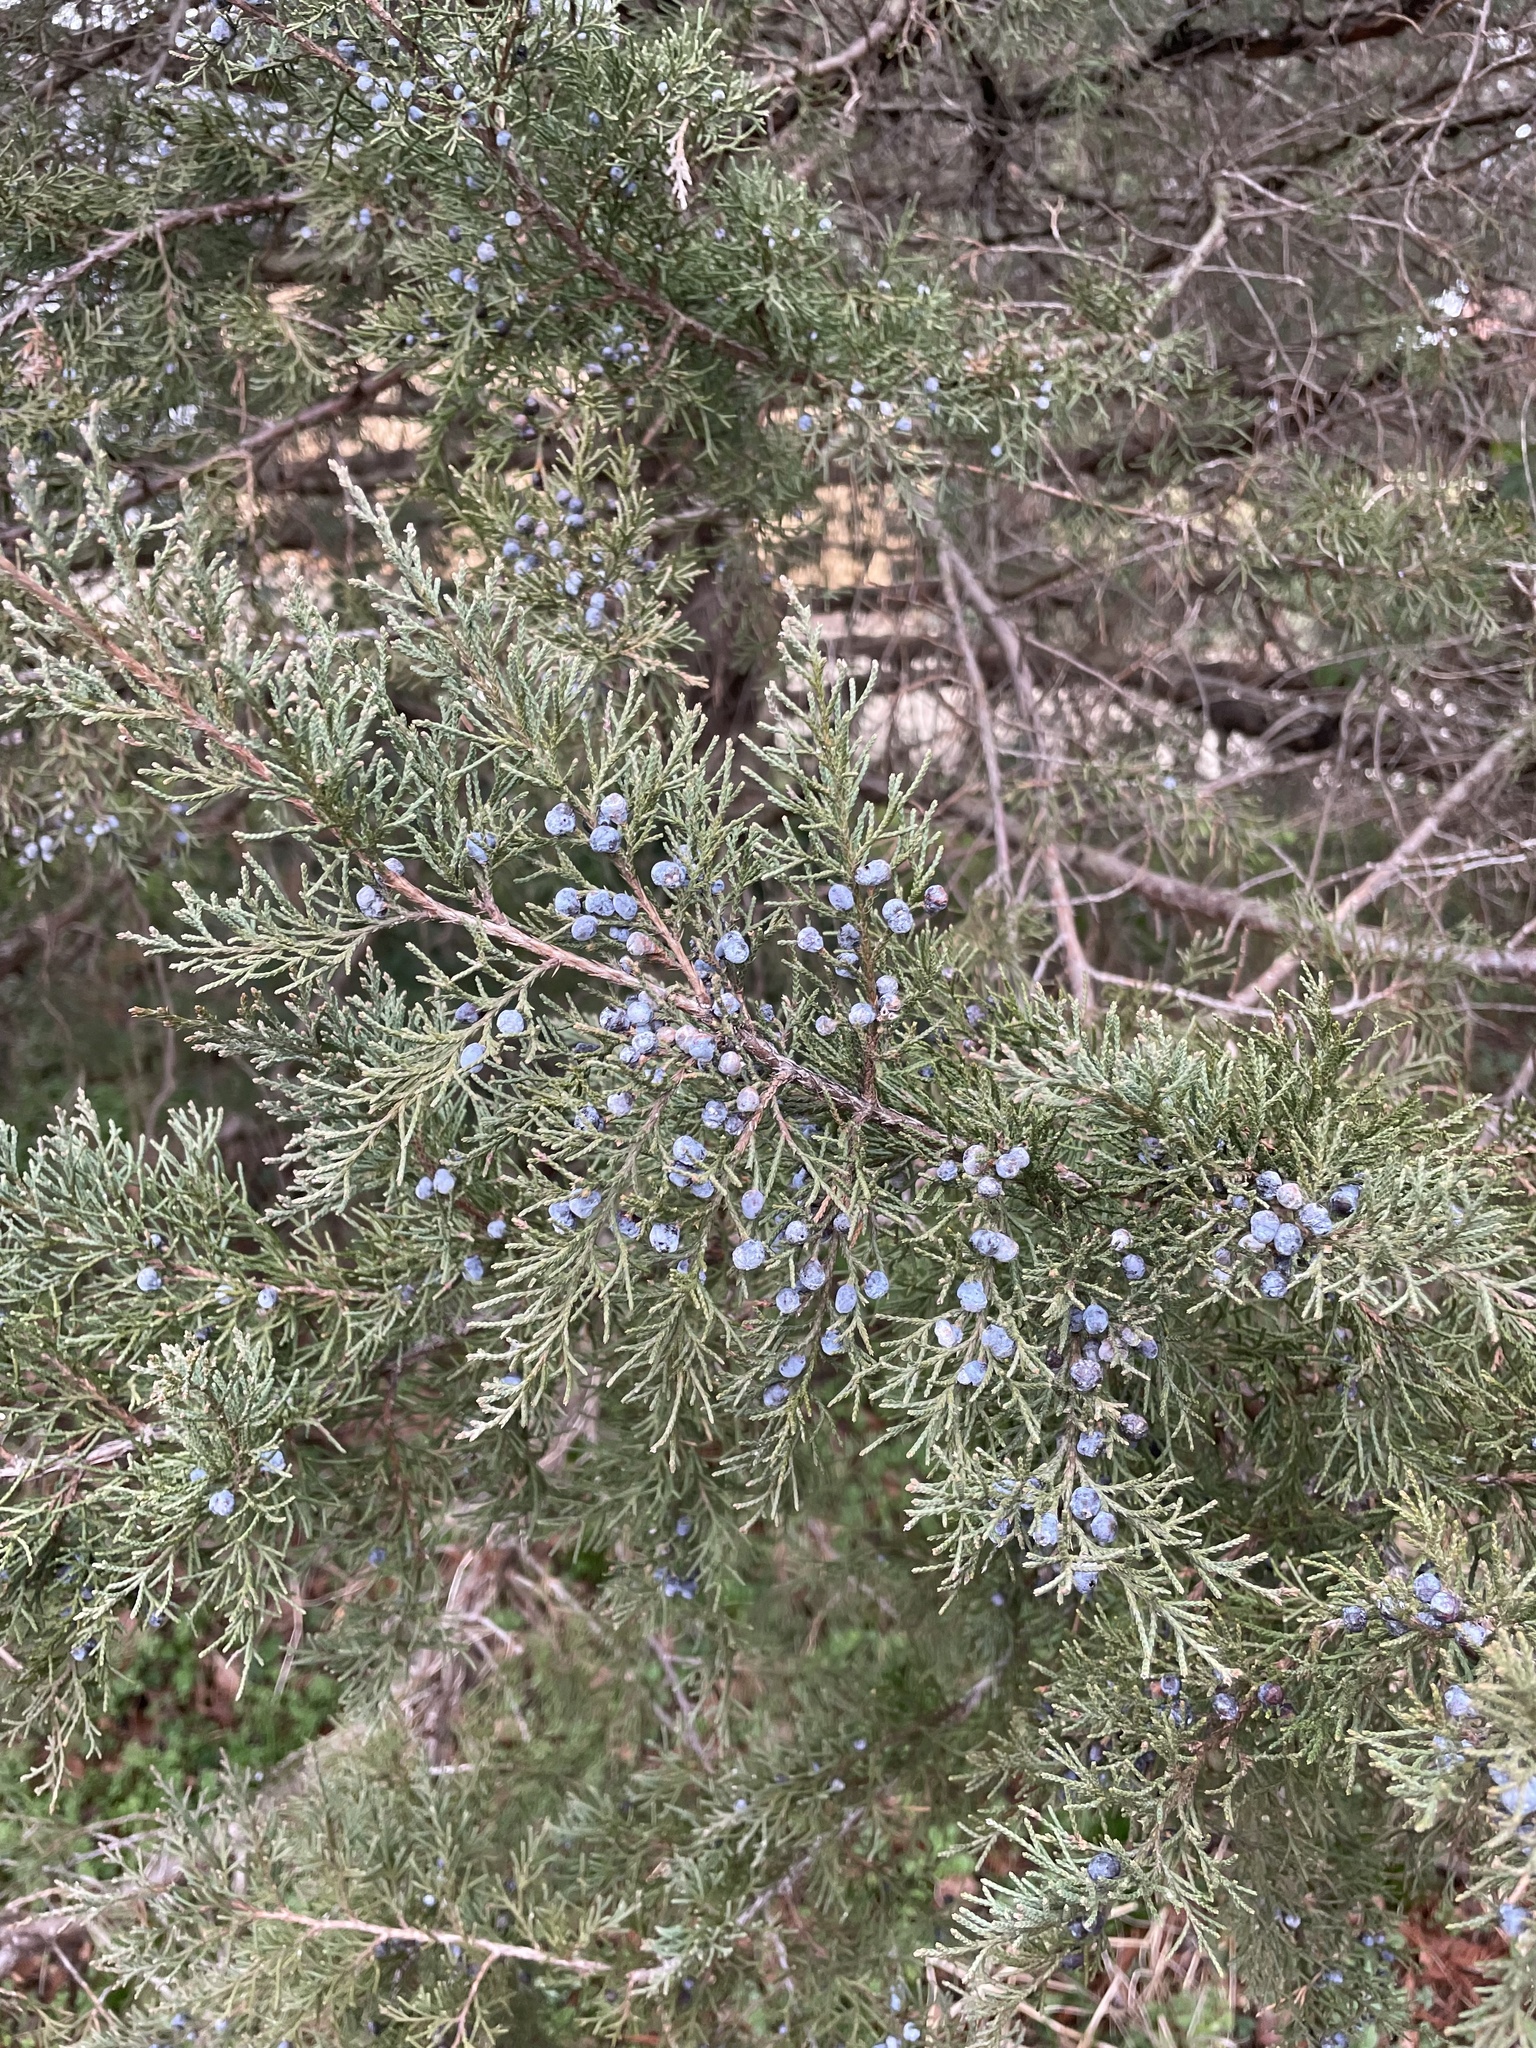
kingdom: Plantae
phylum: Tracheophyta
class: Pinopsida
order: Pinales
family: Cupressaceae
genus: Juniperus
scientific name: Juniperus virginiana
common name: Red juniper
